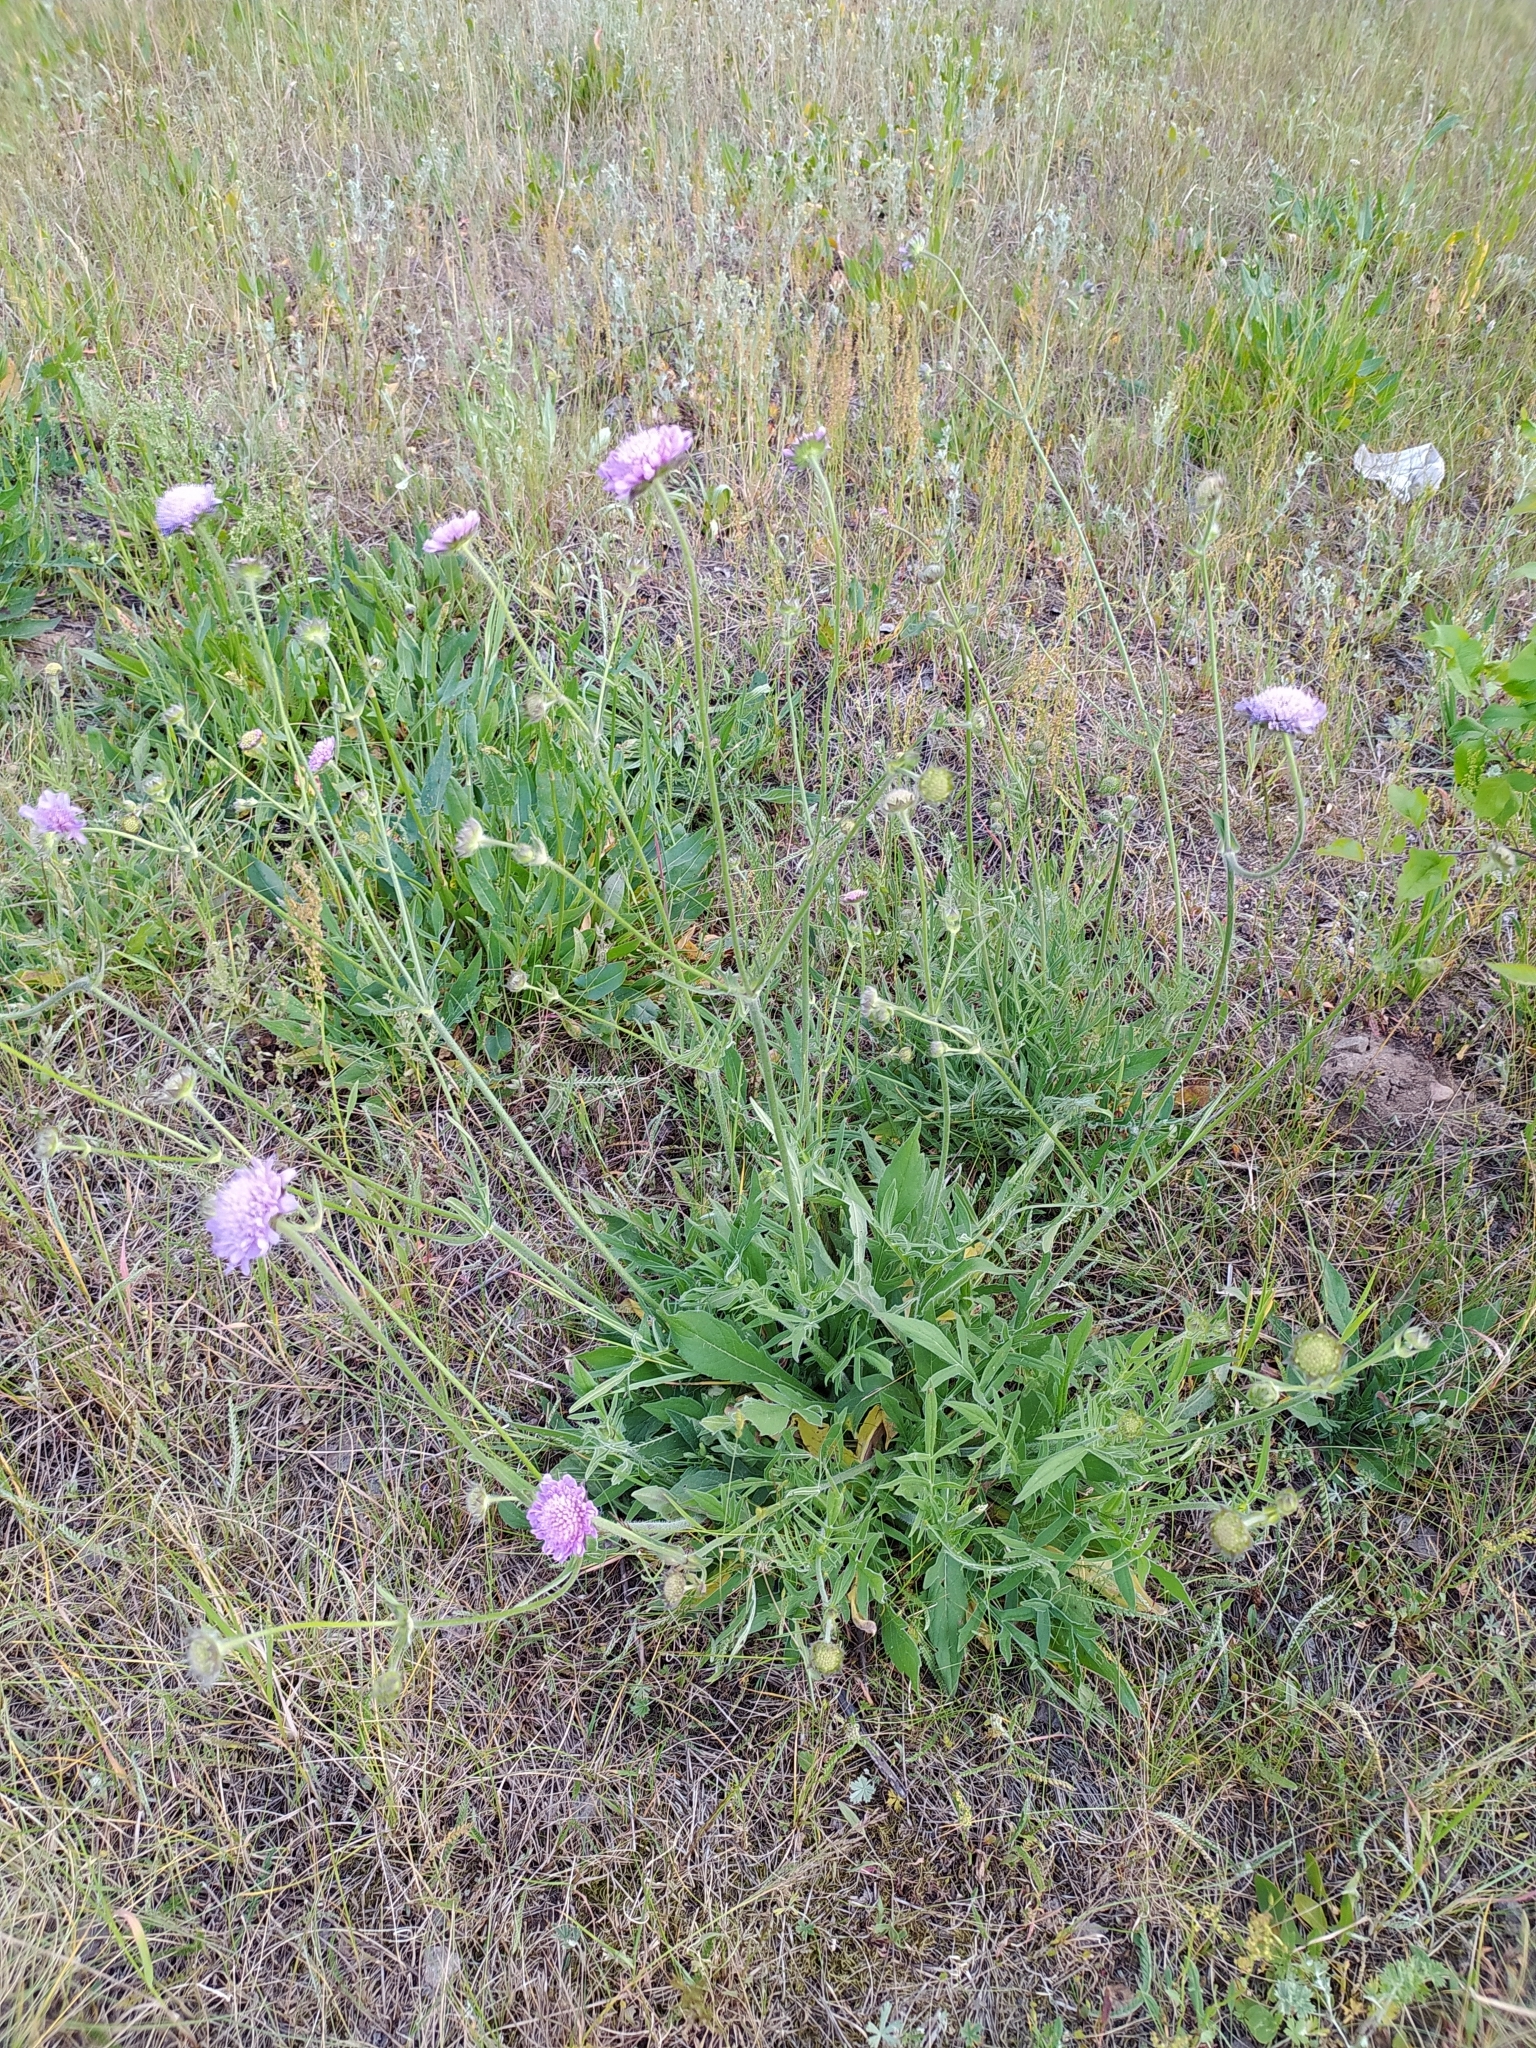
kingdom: Plantae
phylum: Tracheophyta
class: Magnoliopsida
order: Dipsacales
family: Caprifoliaceae
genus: Knautia
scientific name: Knautia arvensis
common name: Field scabiosa
